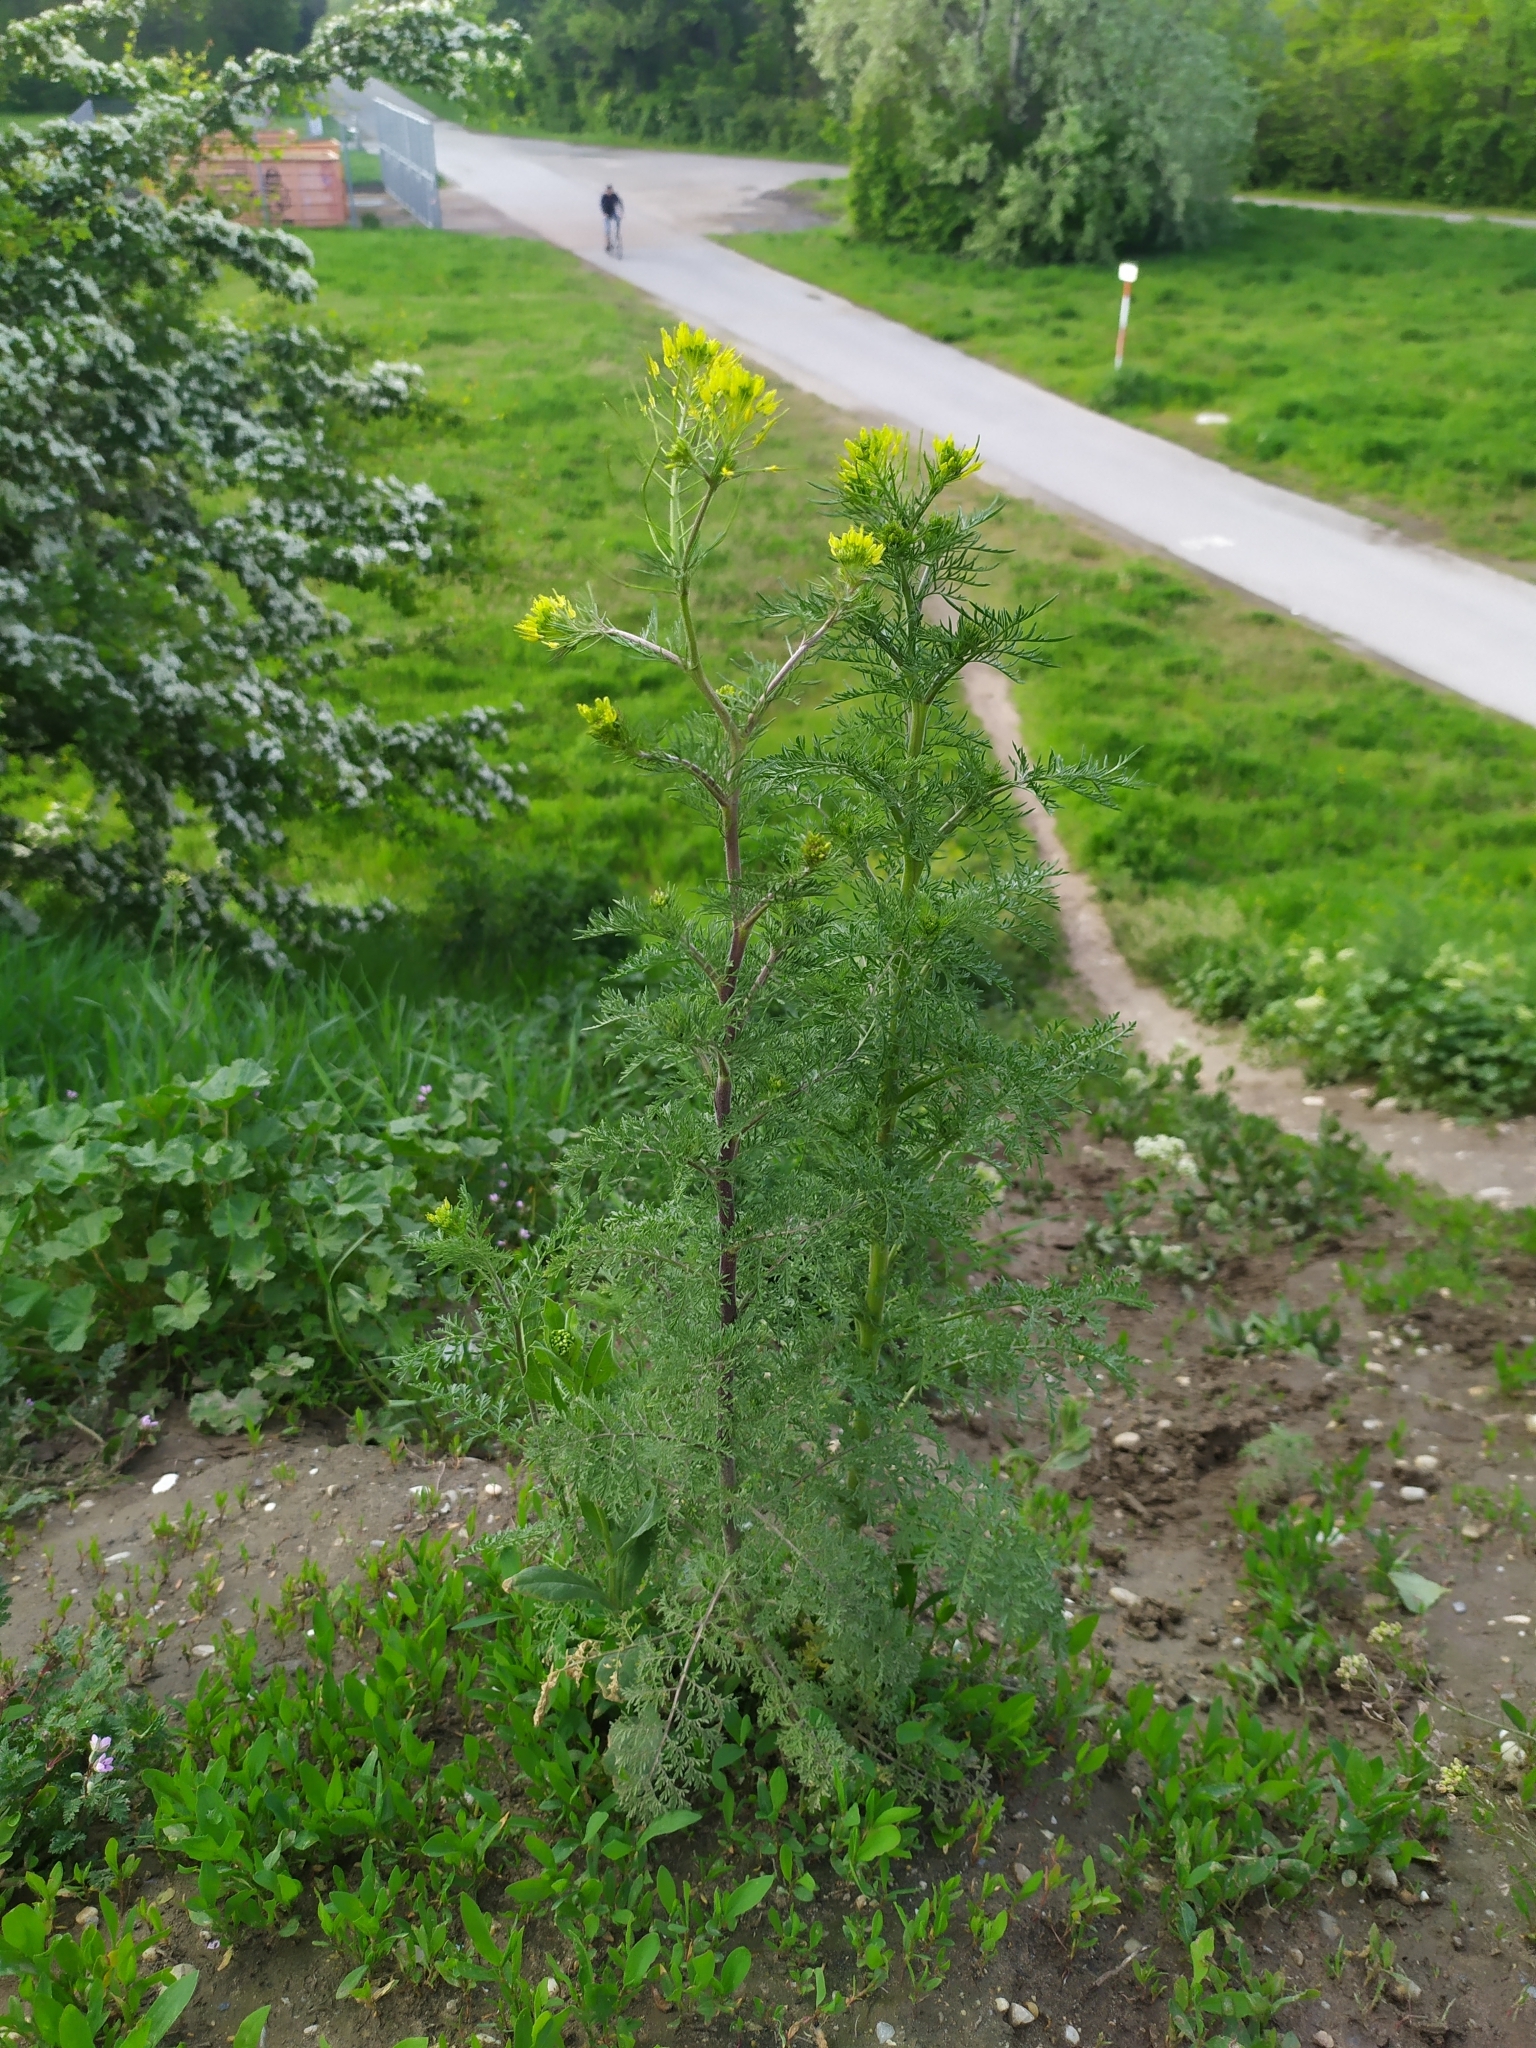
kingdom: Plantae
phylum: Tracheophyta
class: Magnoliopsida
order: Brassicales
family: Brassicaceae
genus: Descurainia
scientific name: Descurainia sophia
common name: Flixweed
